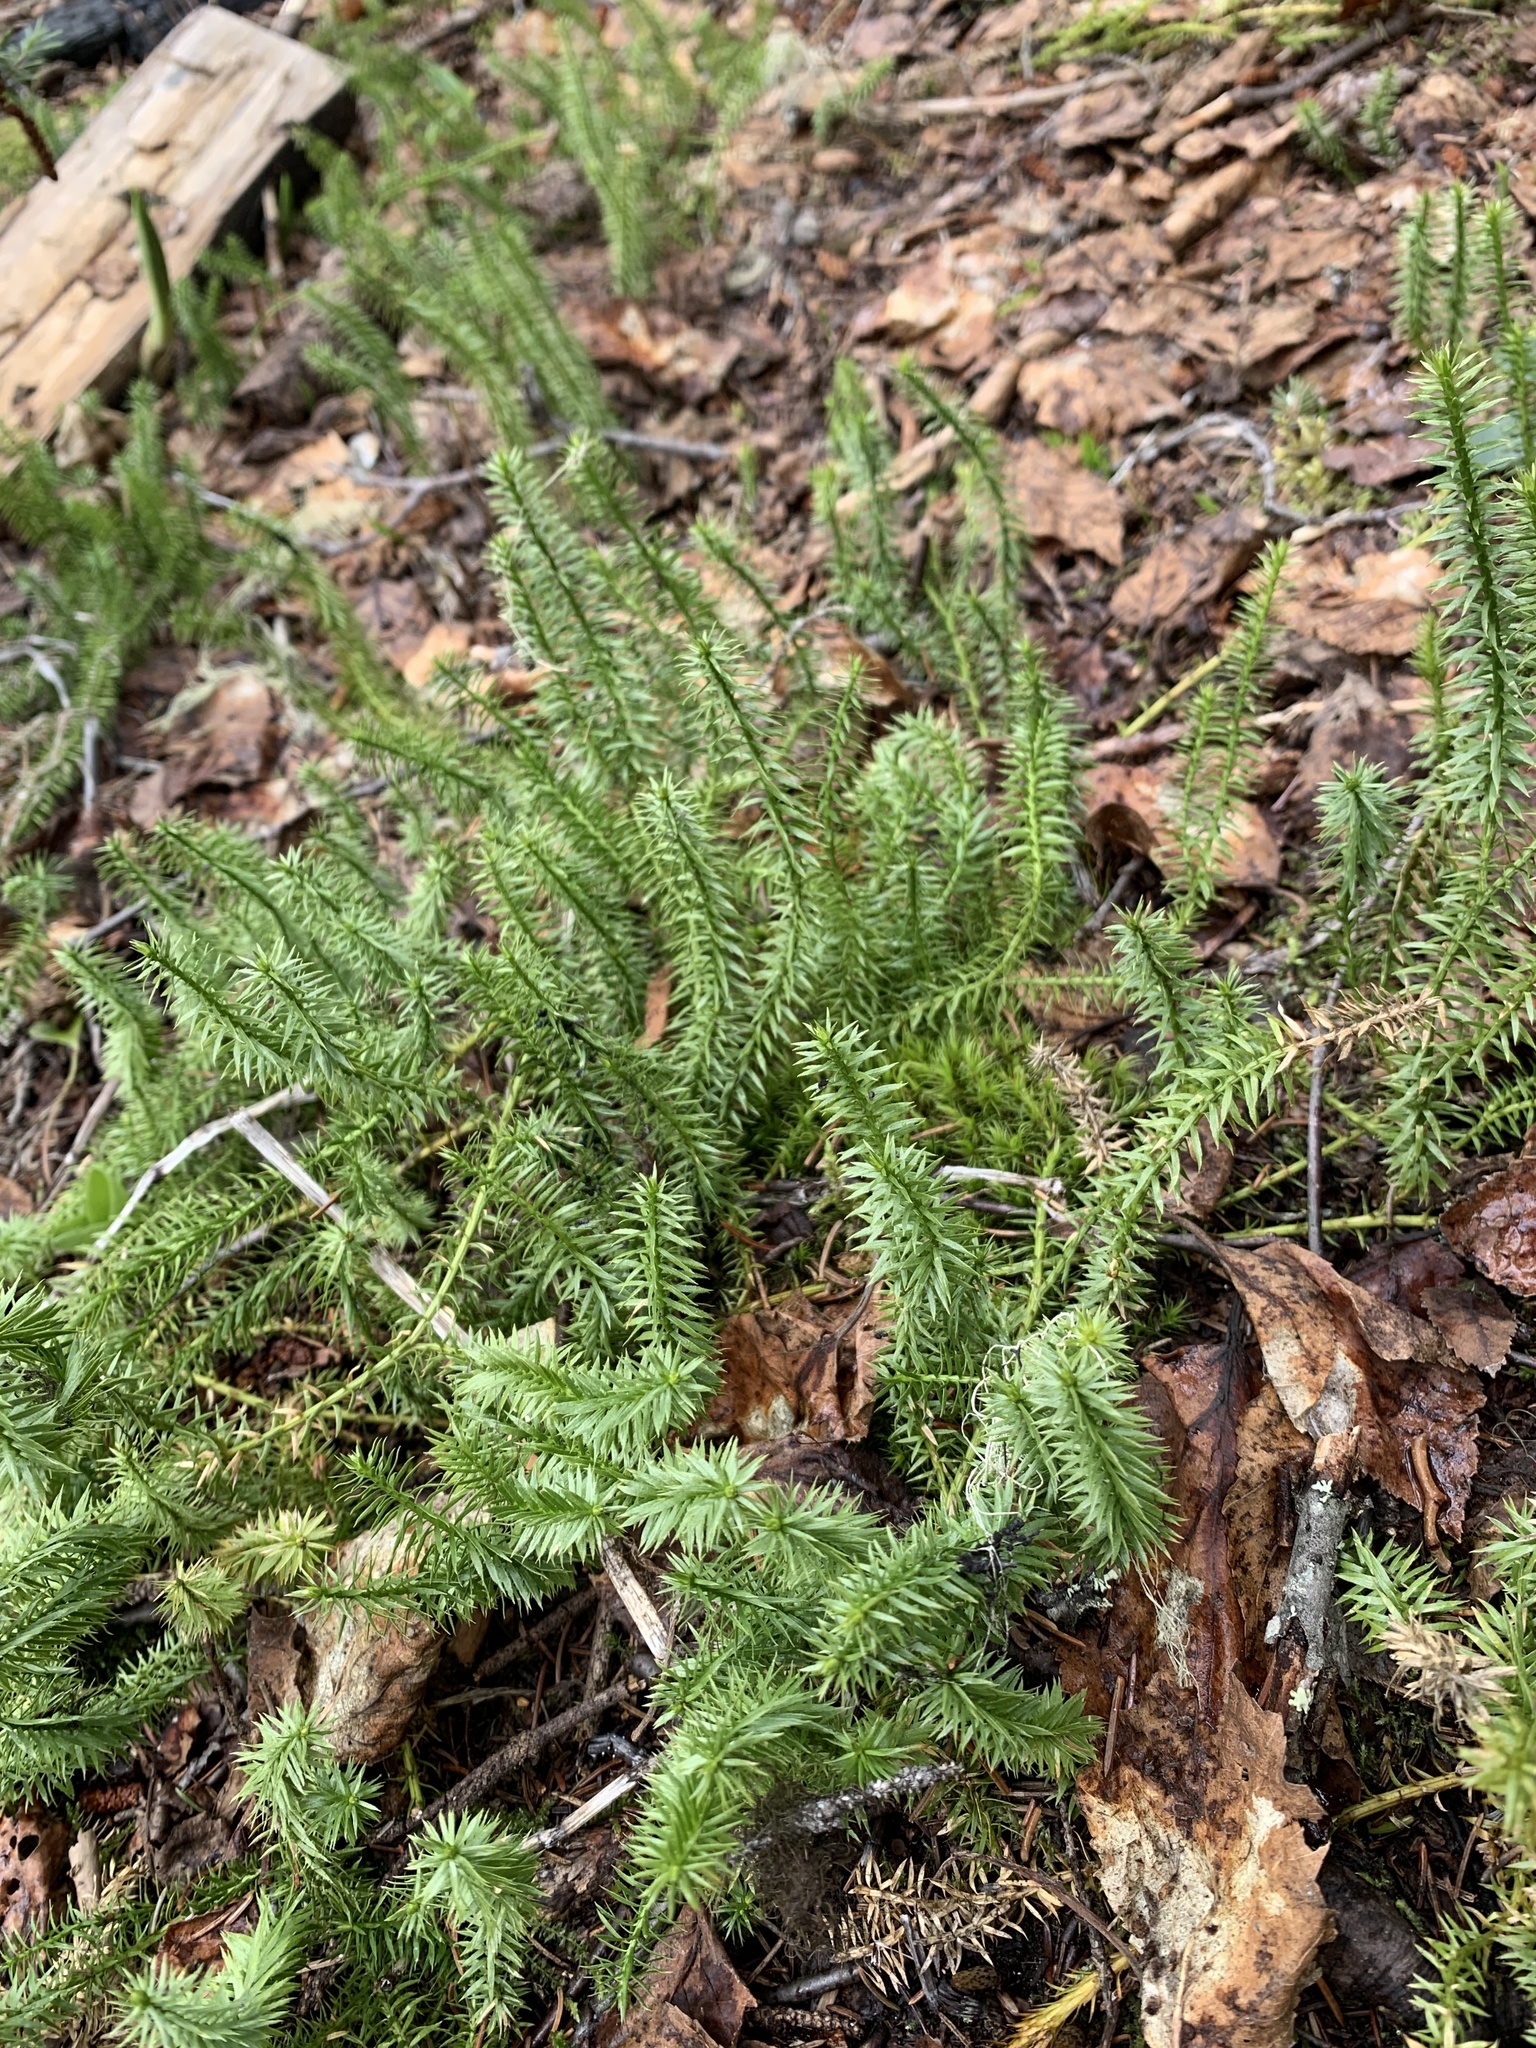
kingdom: Plantae
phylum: Tracheophyta
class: Lycopodiopsida
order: Lycopodiales
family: Lycopodiaceae
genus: Spinulum
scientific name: Spinulum annotinum
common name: Interrupted club-moss
